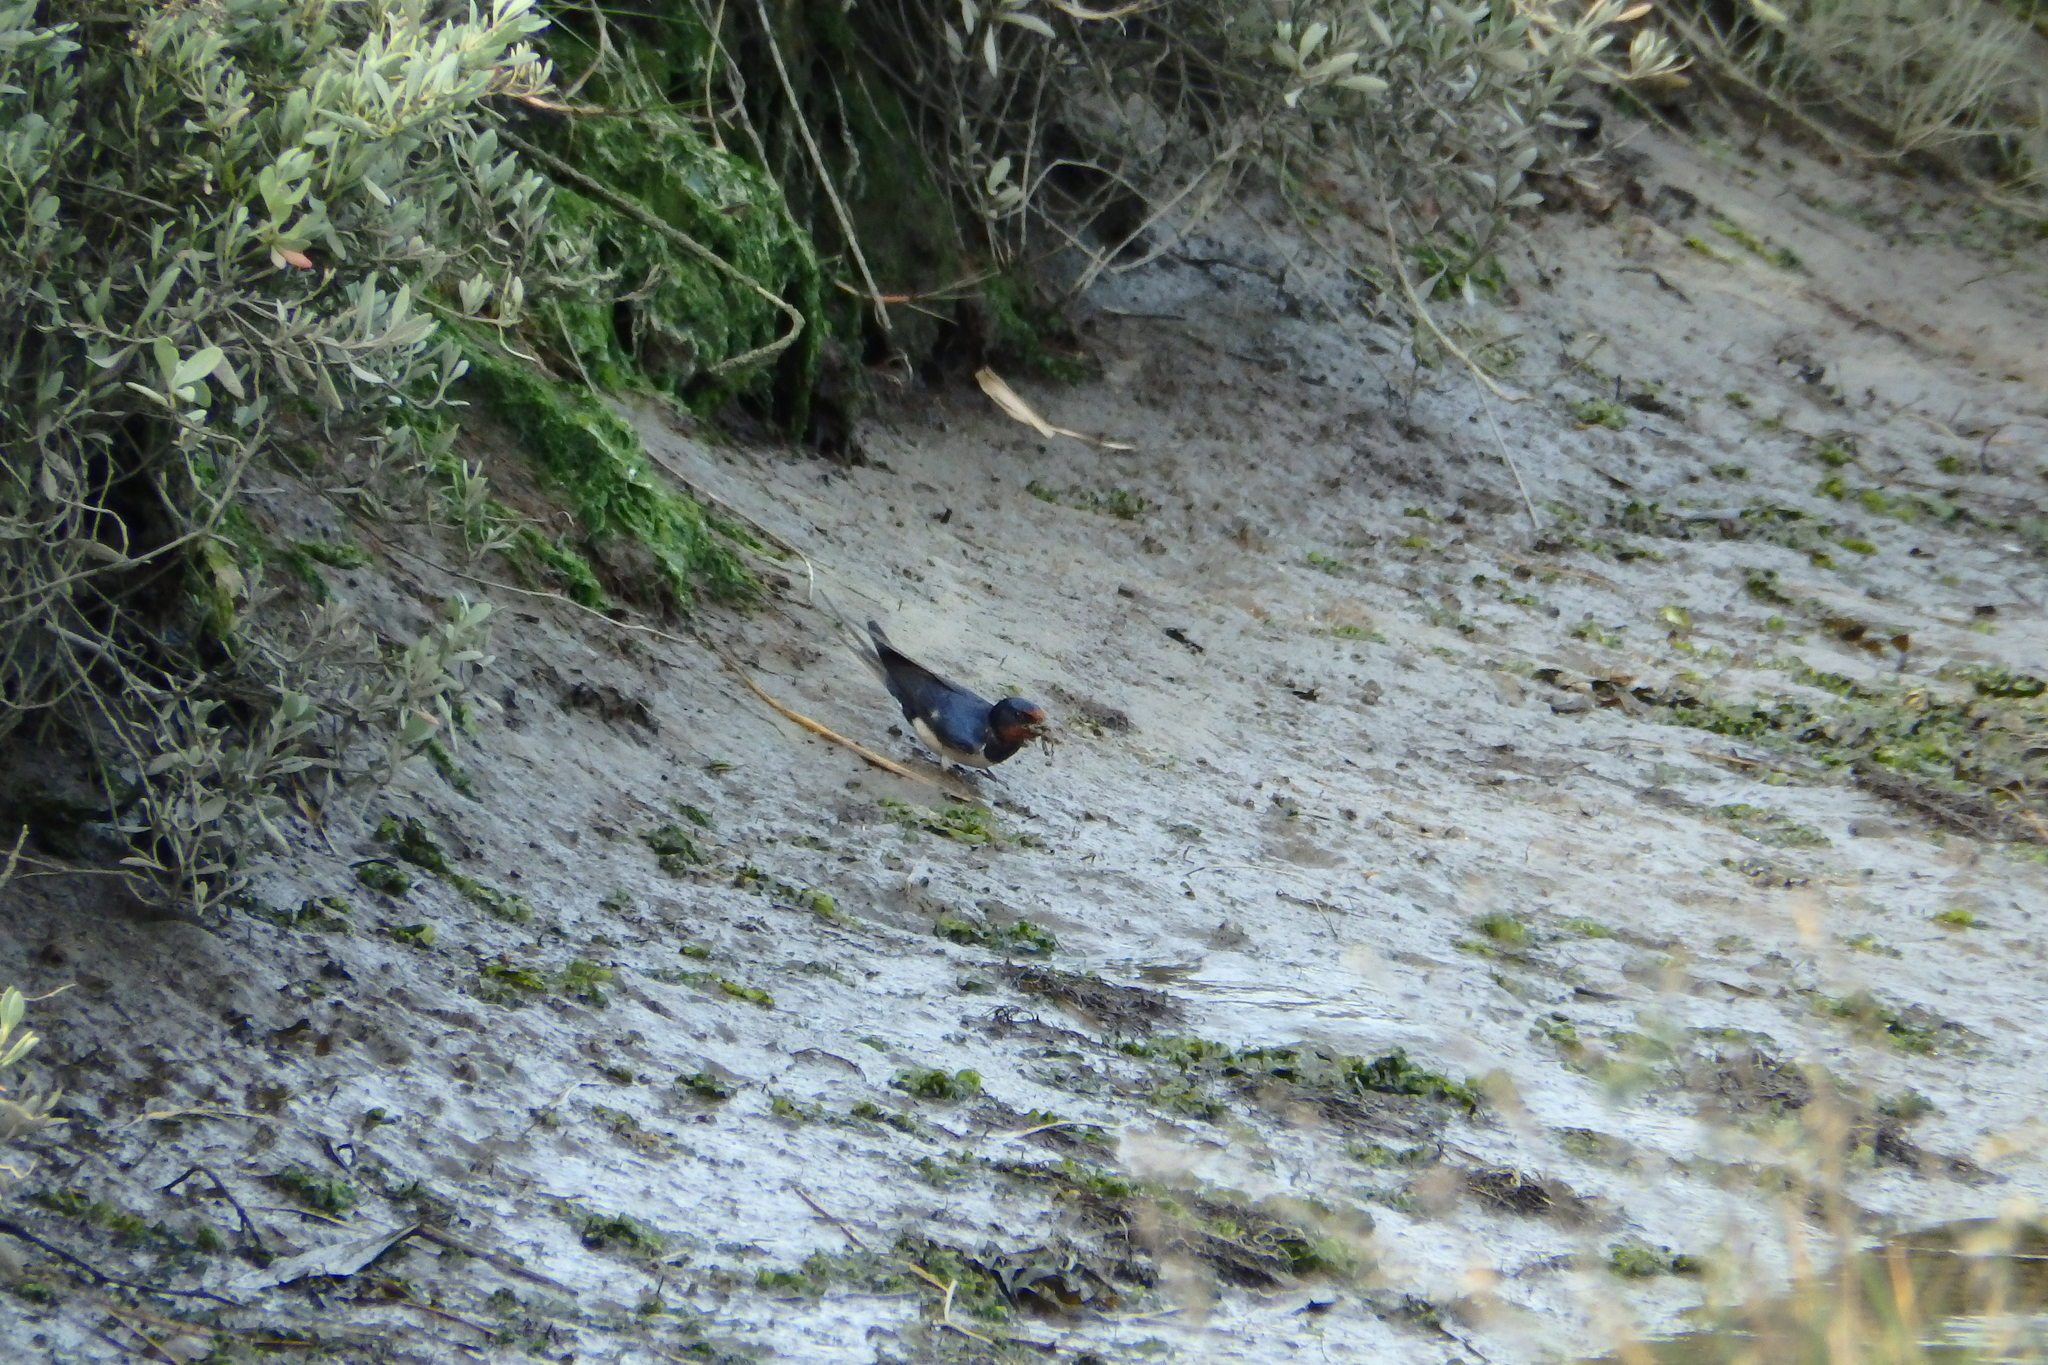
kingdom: Animalia
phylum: Chordata
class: Aves
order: Passeriformes
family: Hirundinidae
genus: Hirundo
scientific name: Hirundo rustica
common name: Barn swallow
